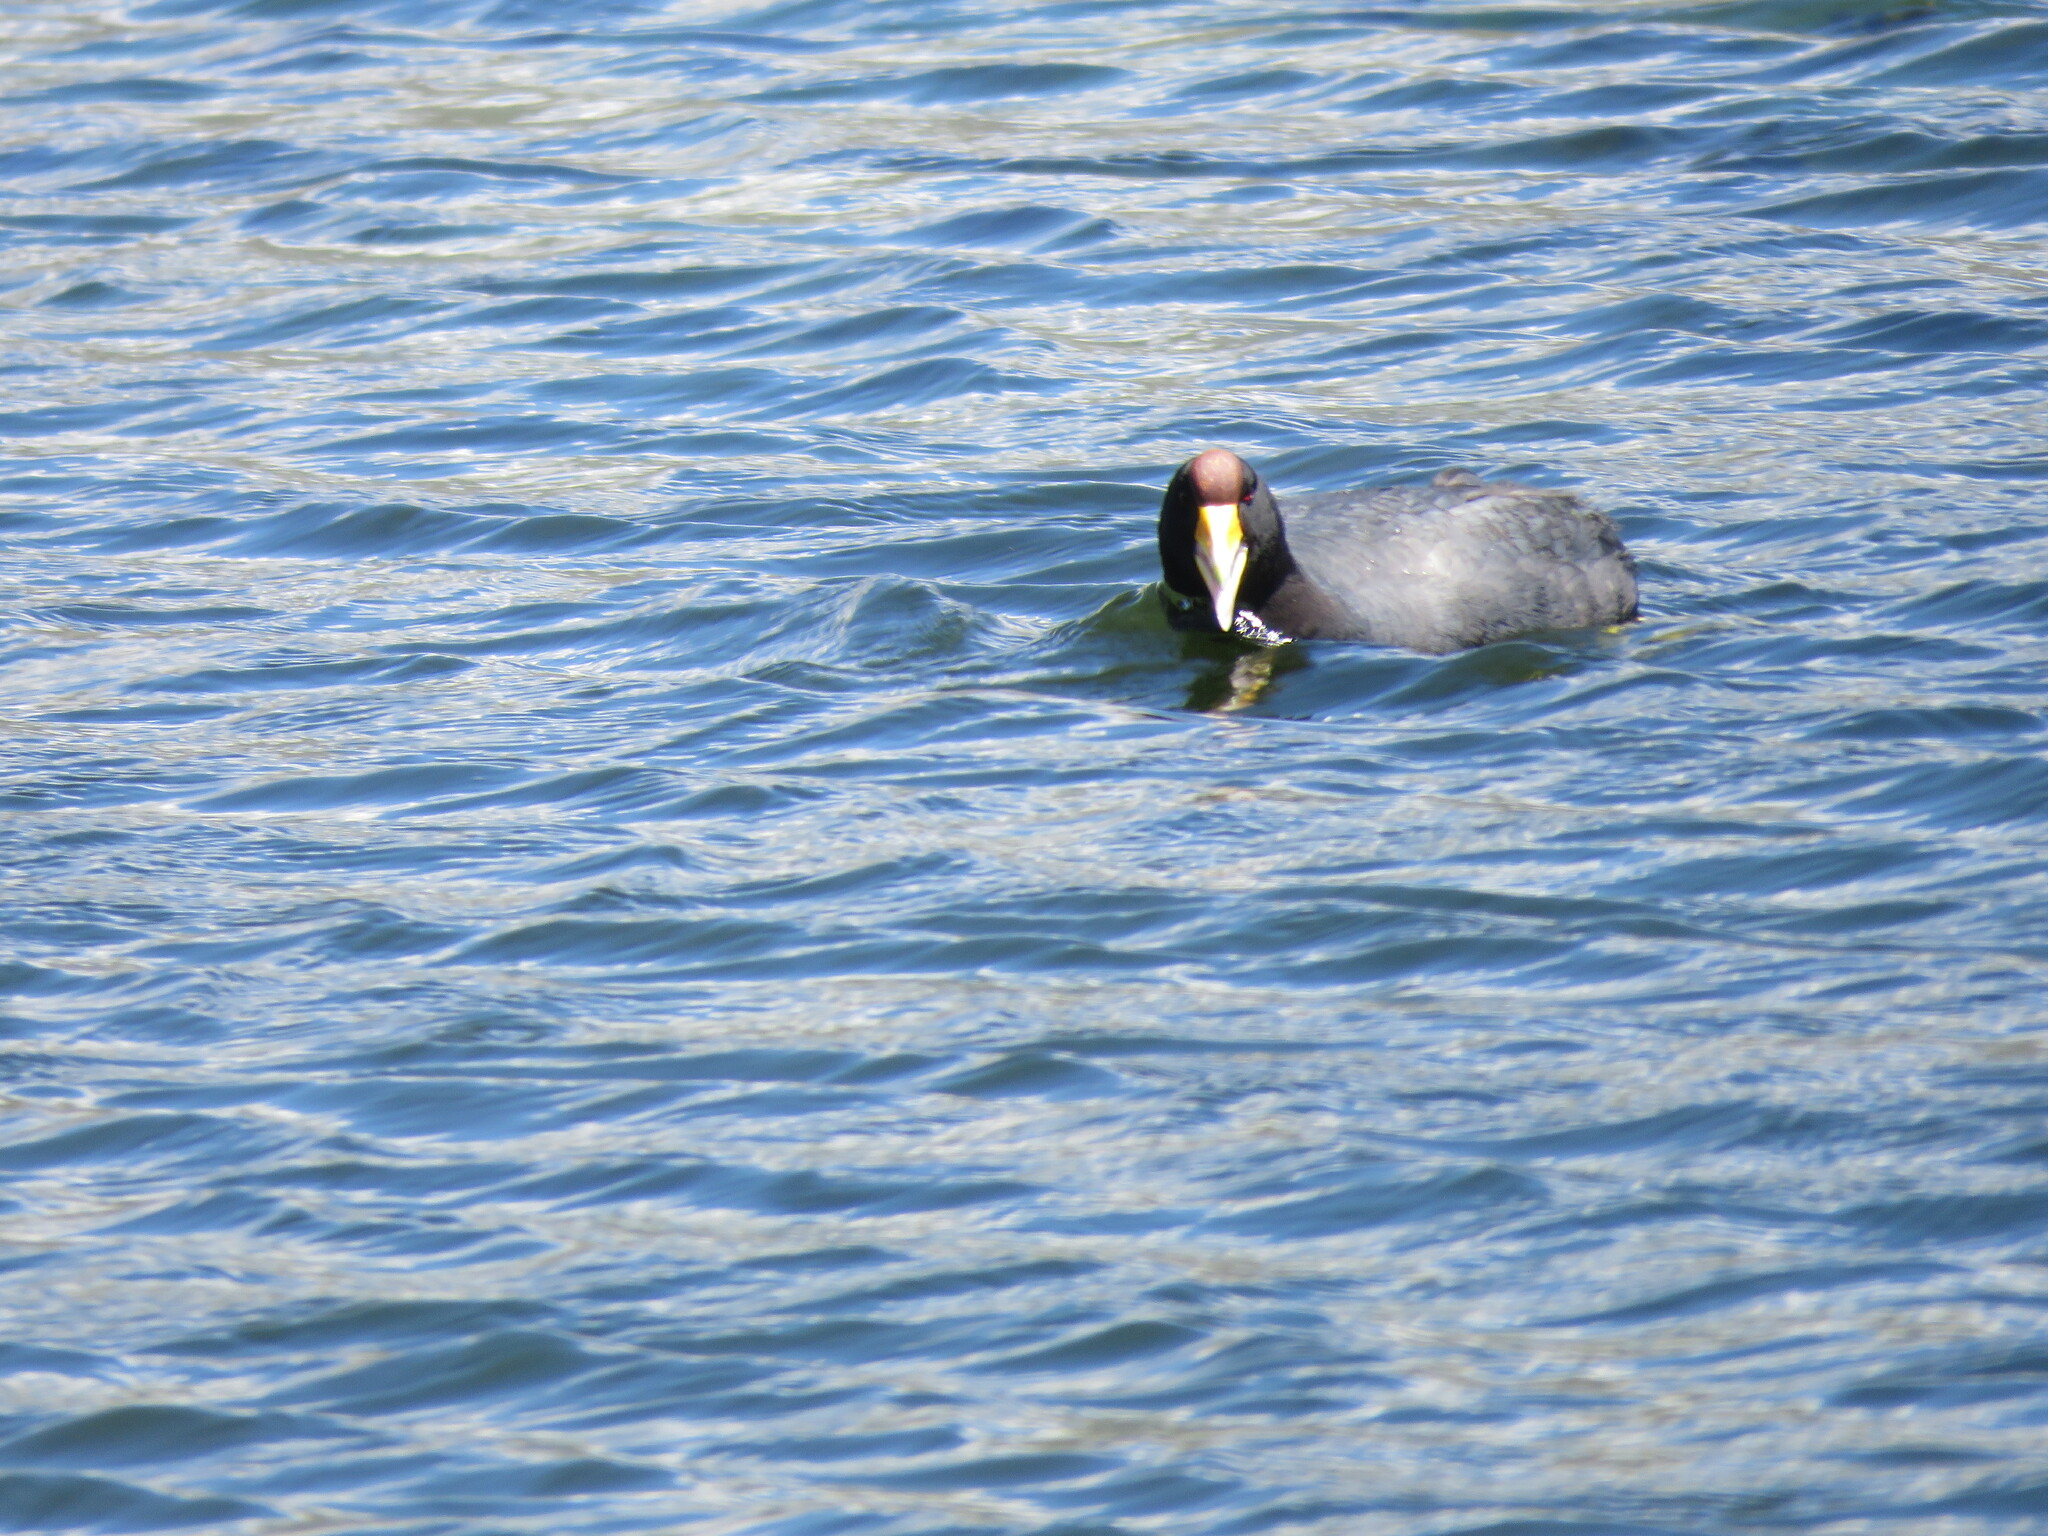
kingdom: Animalia
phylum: Chordata
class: Aves
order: Gruiformes
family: Rallidae
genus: Fulica
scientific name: Fulica ardesiaca
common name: Andean coot
